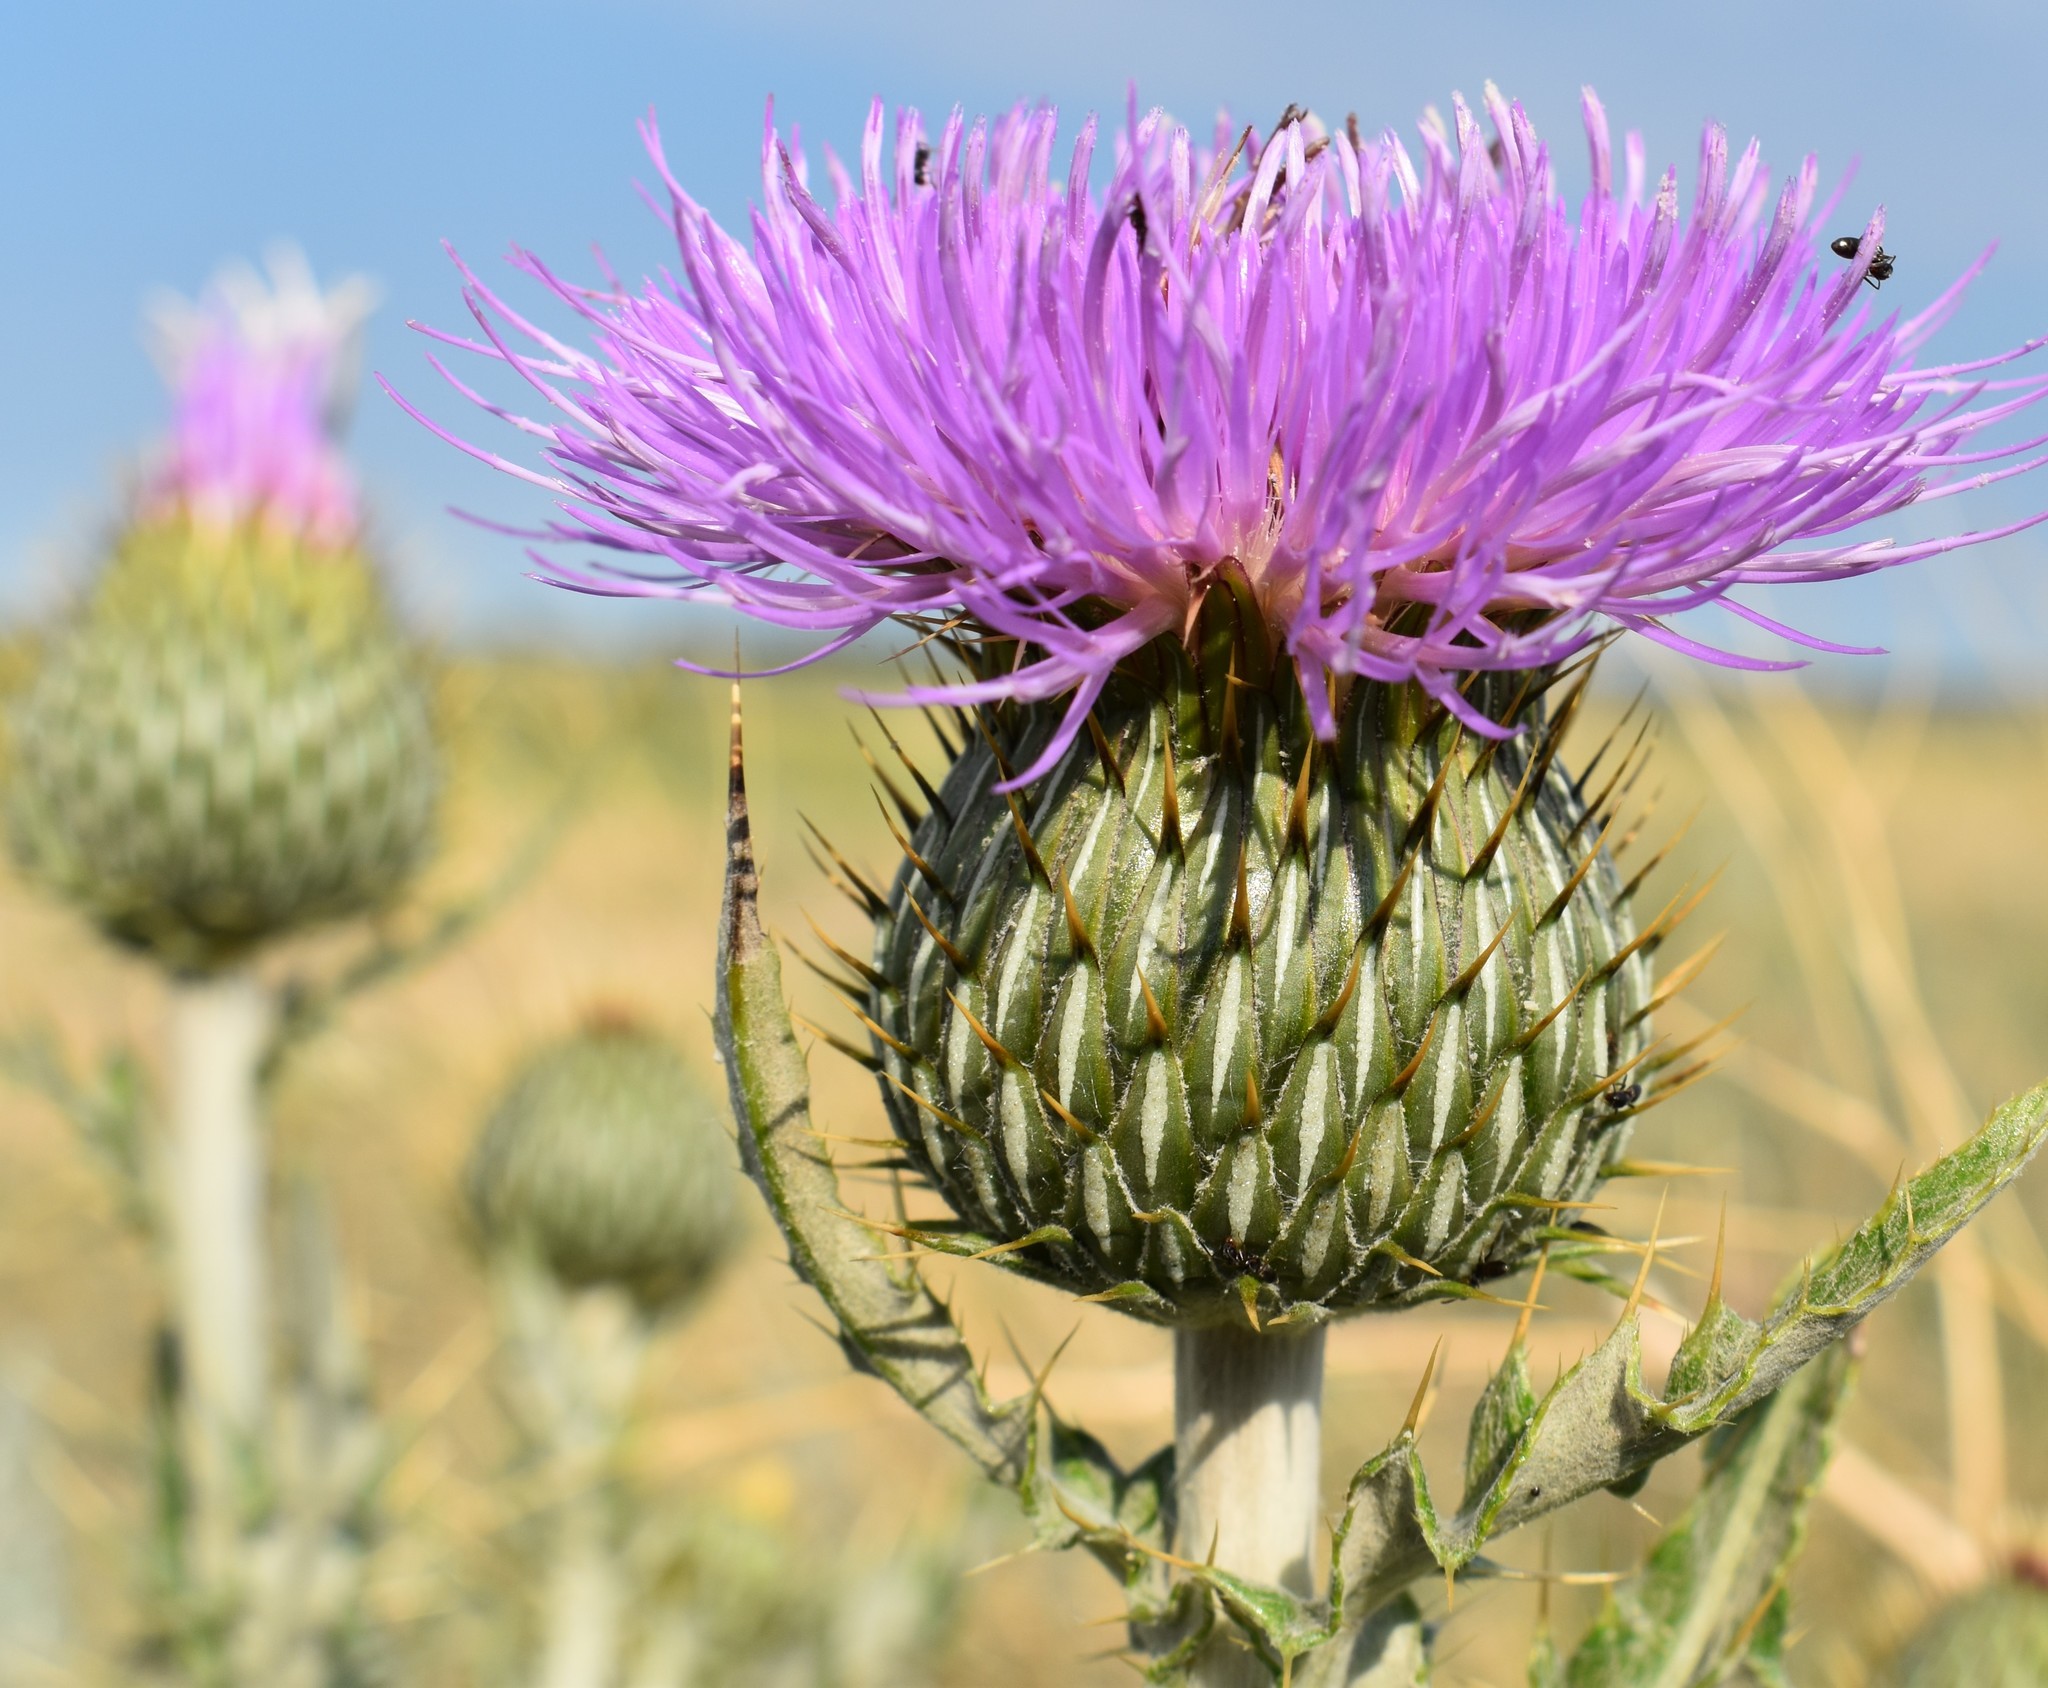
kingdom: Plantae
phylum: Tracheophyta
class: Magnoliopsida
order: Asterales
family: Asteraceae
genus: Cirsium
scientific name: Cirsium undulatum
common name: Pasture thistle
